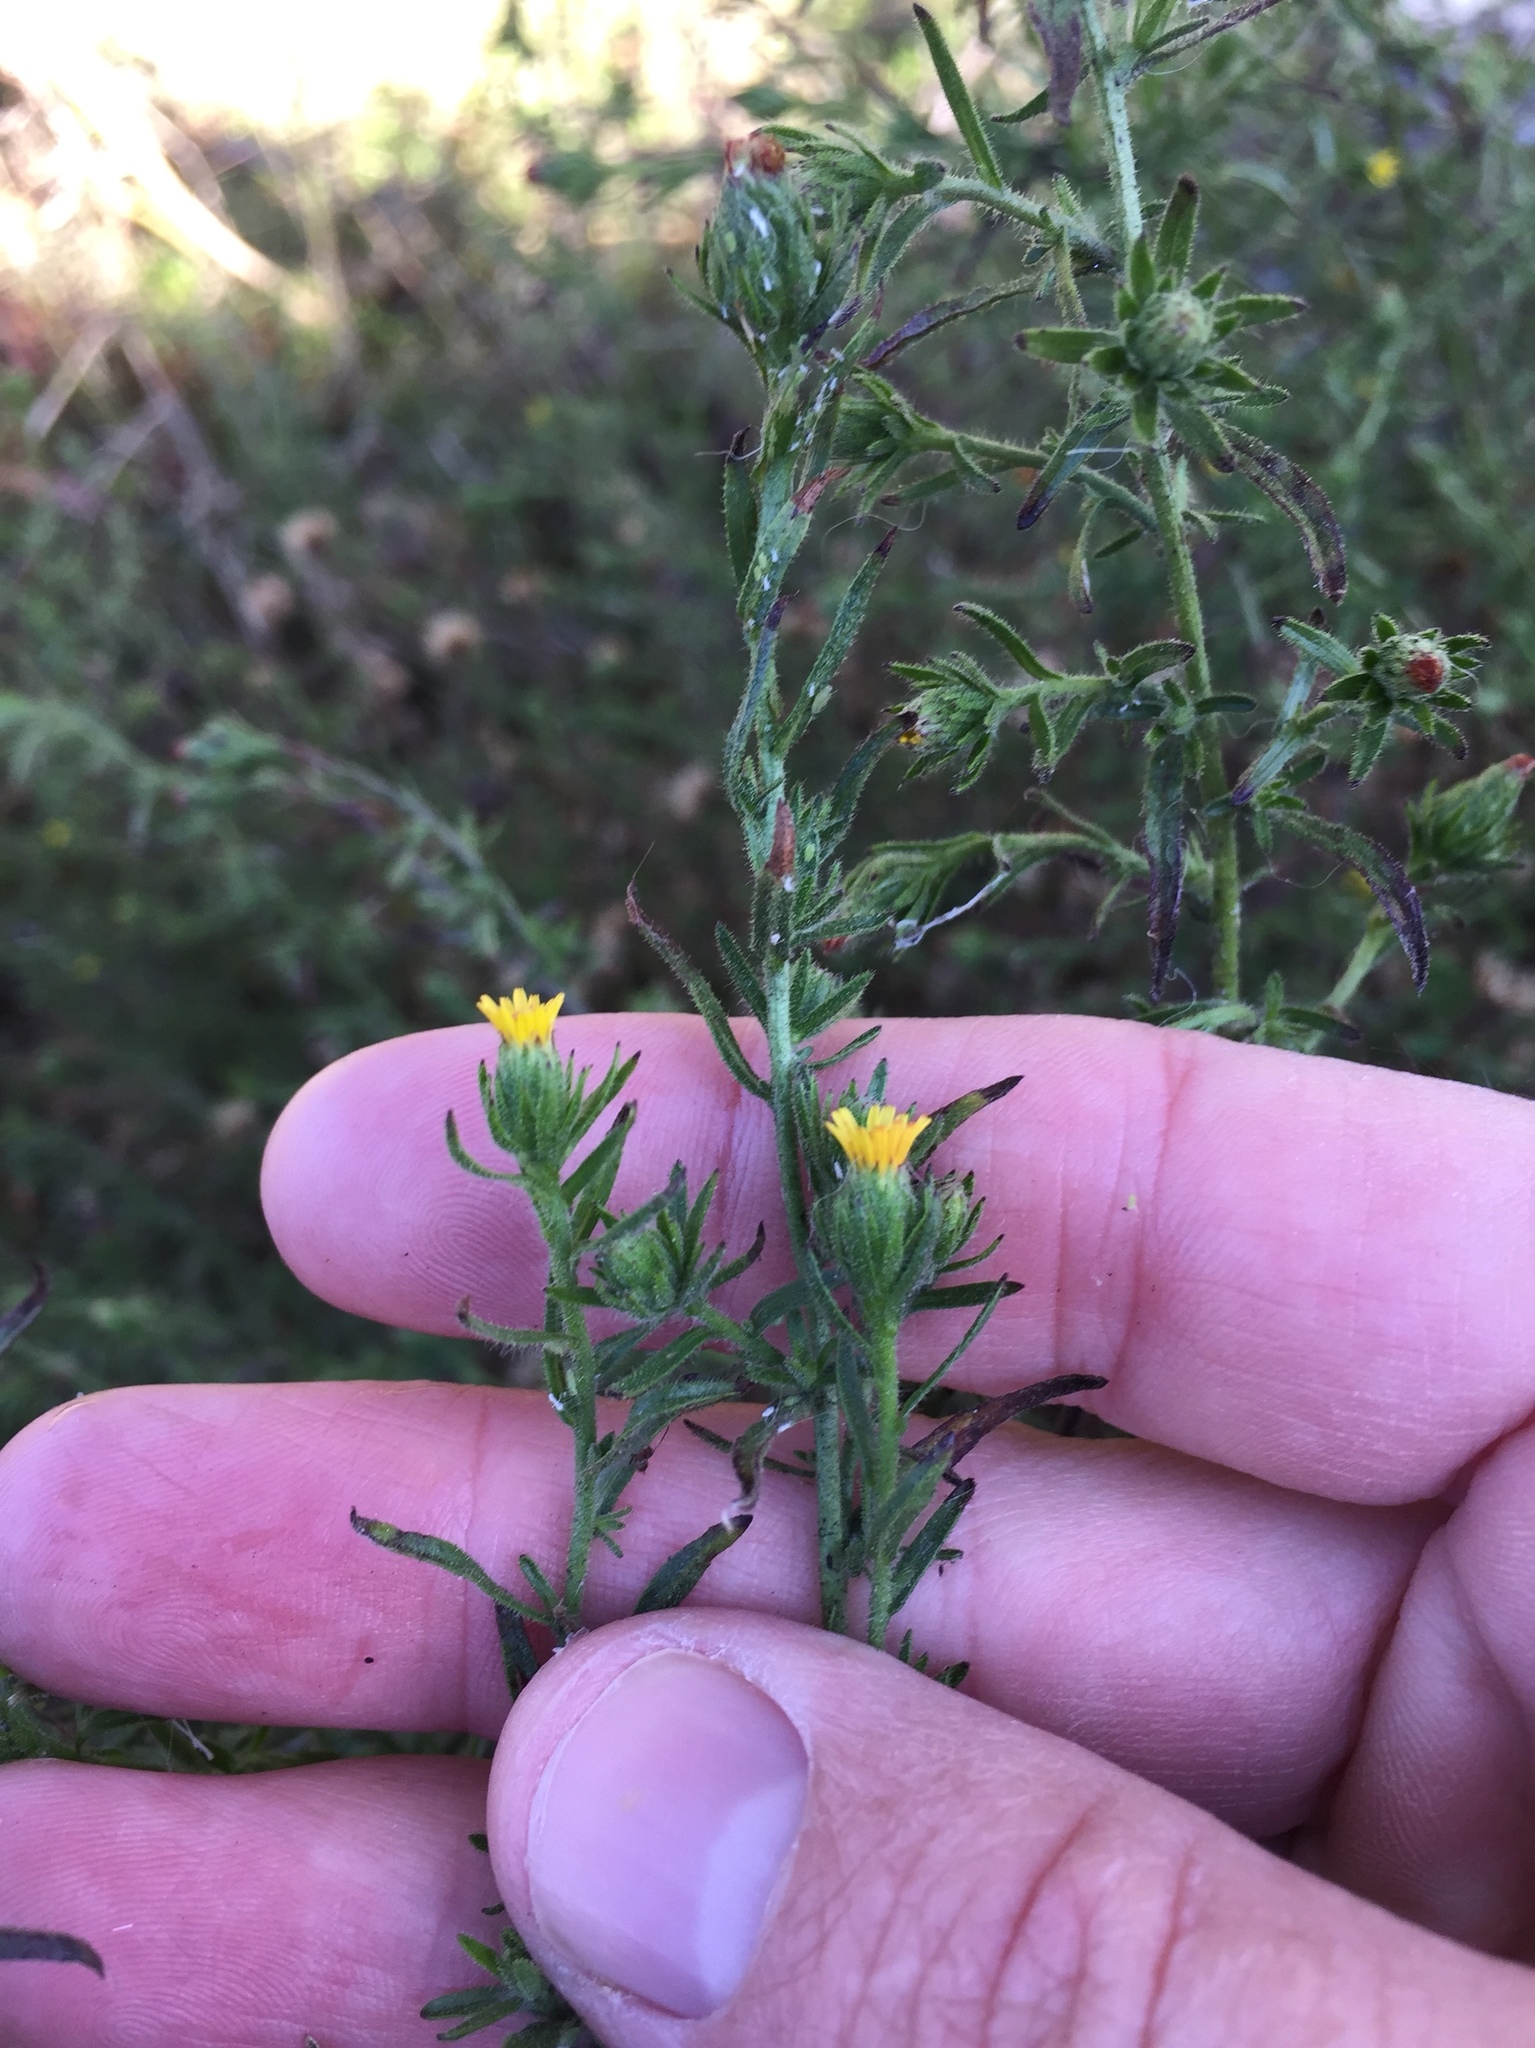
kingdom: Plantae
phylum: Tracheophyta
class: Magnoliopsida
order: Asterales
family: Asteraceae
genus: Dittrichia
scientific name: Dittrichia graveolens
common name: Stinking fleabane
